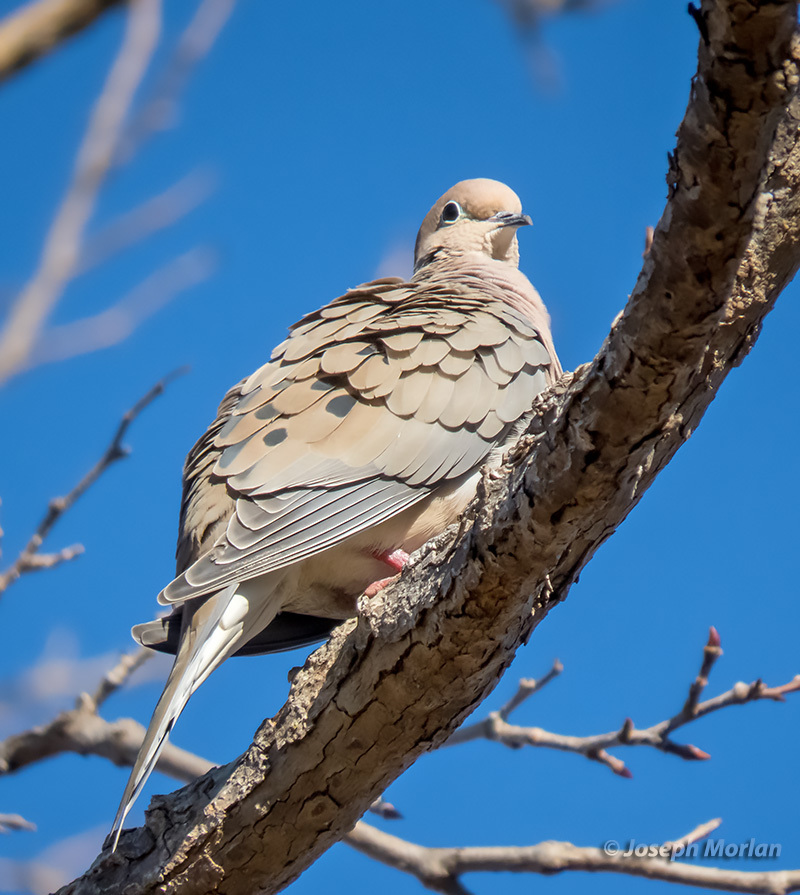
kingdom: Animalia
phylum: Chordata
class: Aves
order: Columbiformes
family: Columbidae
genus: Zenaida
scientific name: Zenaida macroura
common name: Mourning dove
